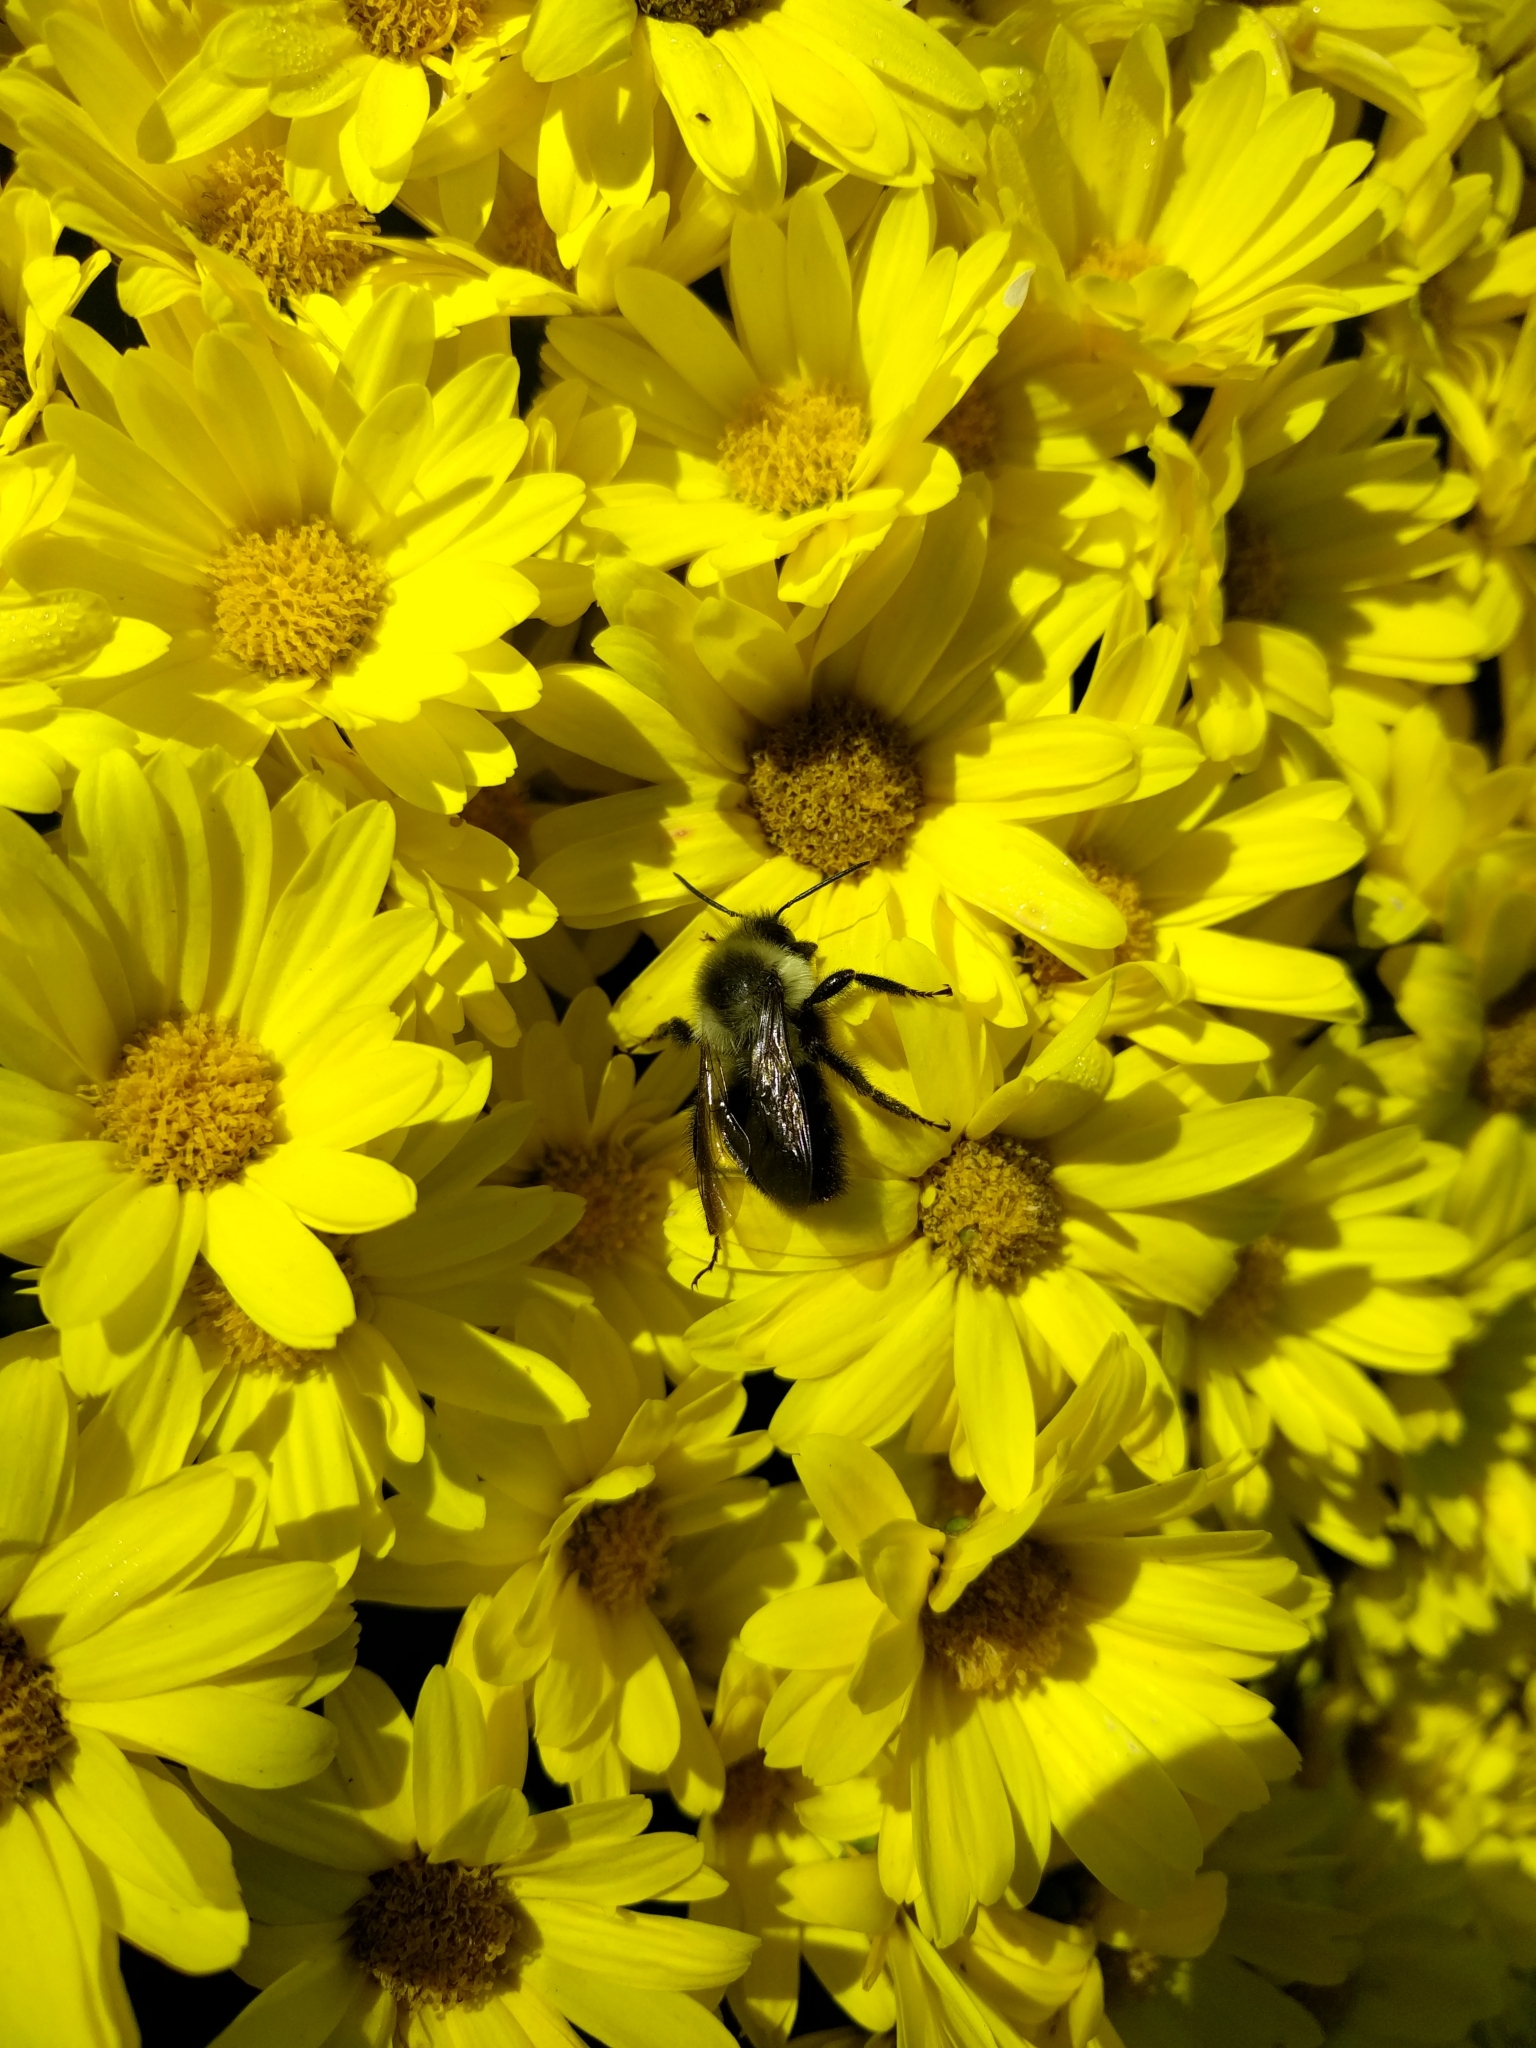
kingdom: Animalia
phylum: Arthropoda
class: Insecta
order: Hymenoptera
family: Apidae
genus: Bombus
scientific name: Bombus impatiens
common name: Common eastern bumble bee
